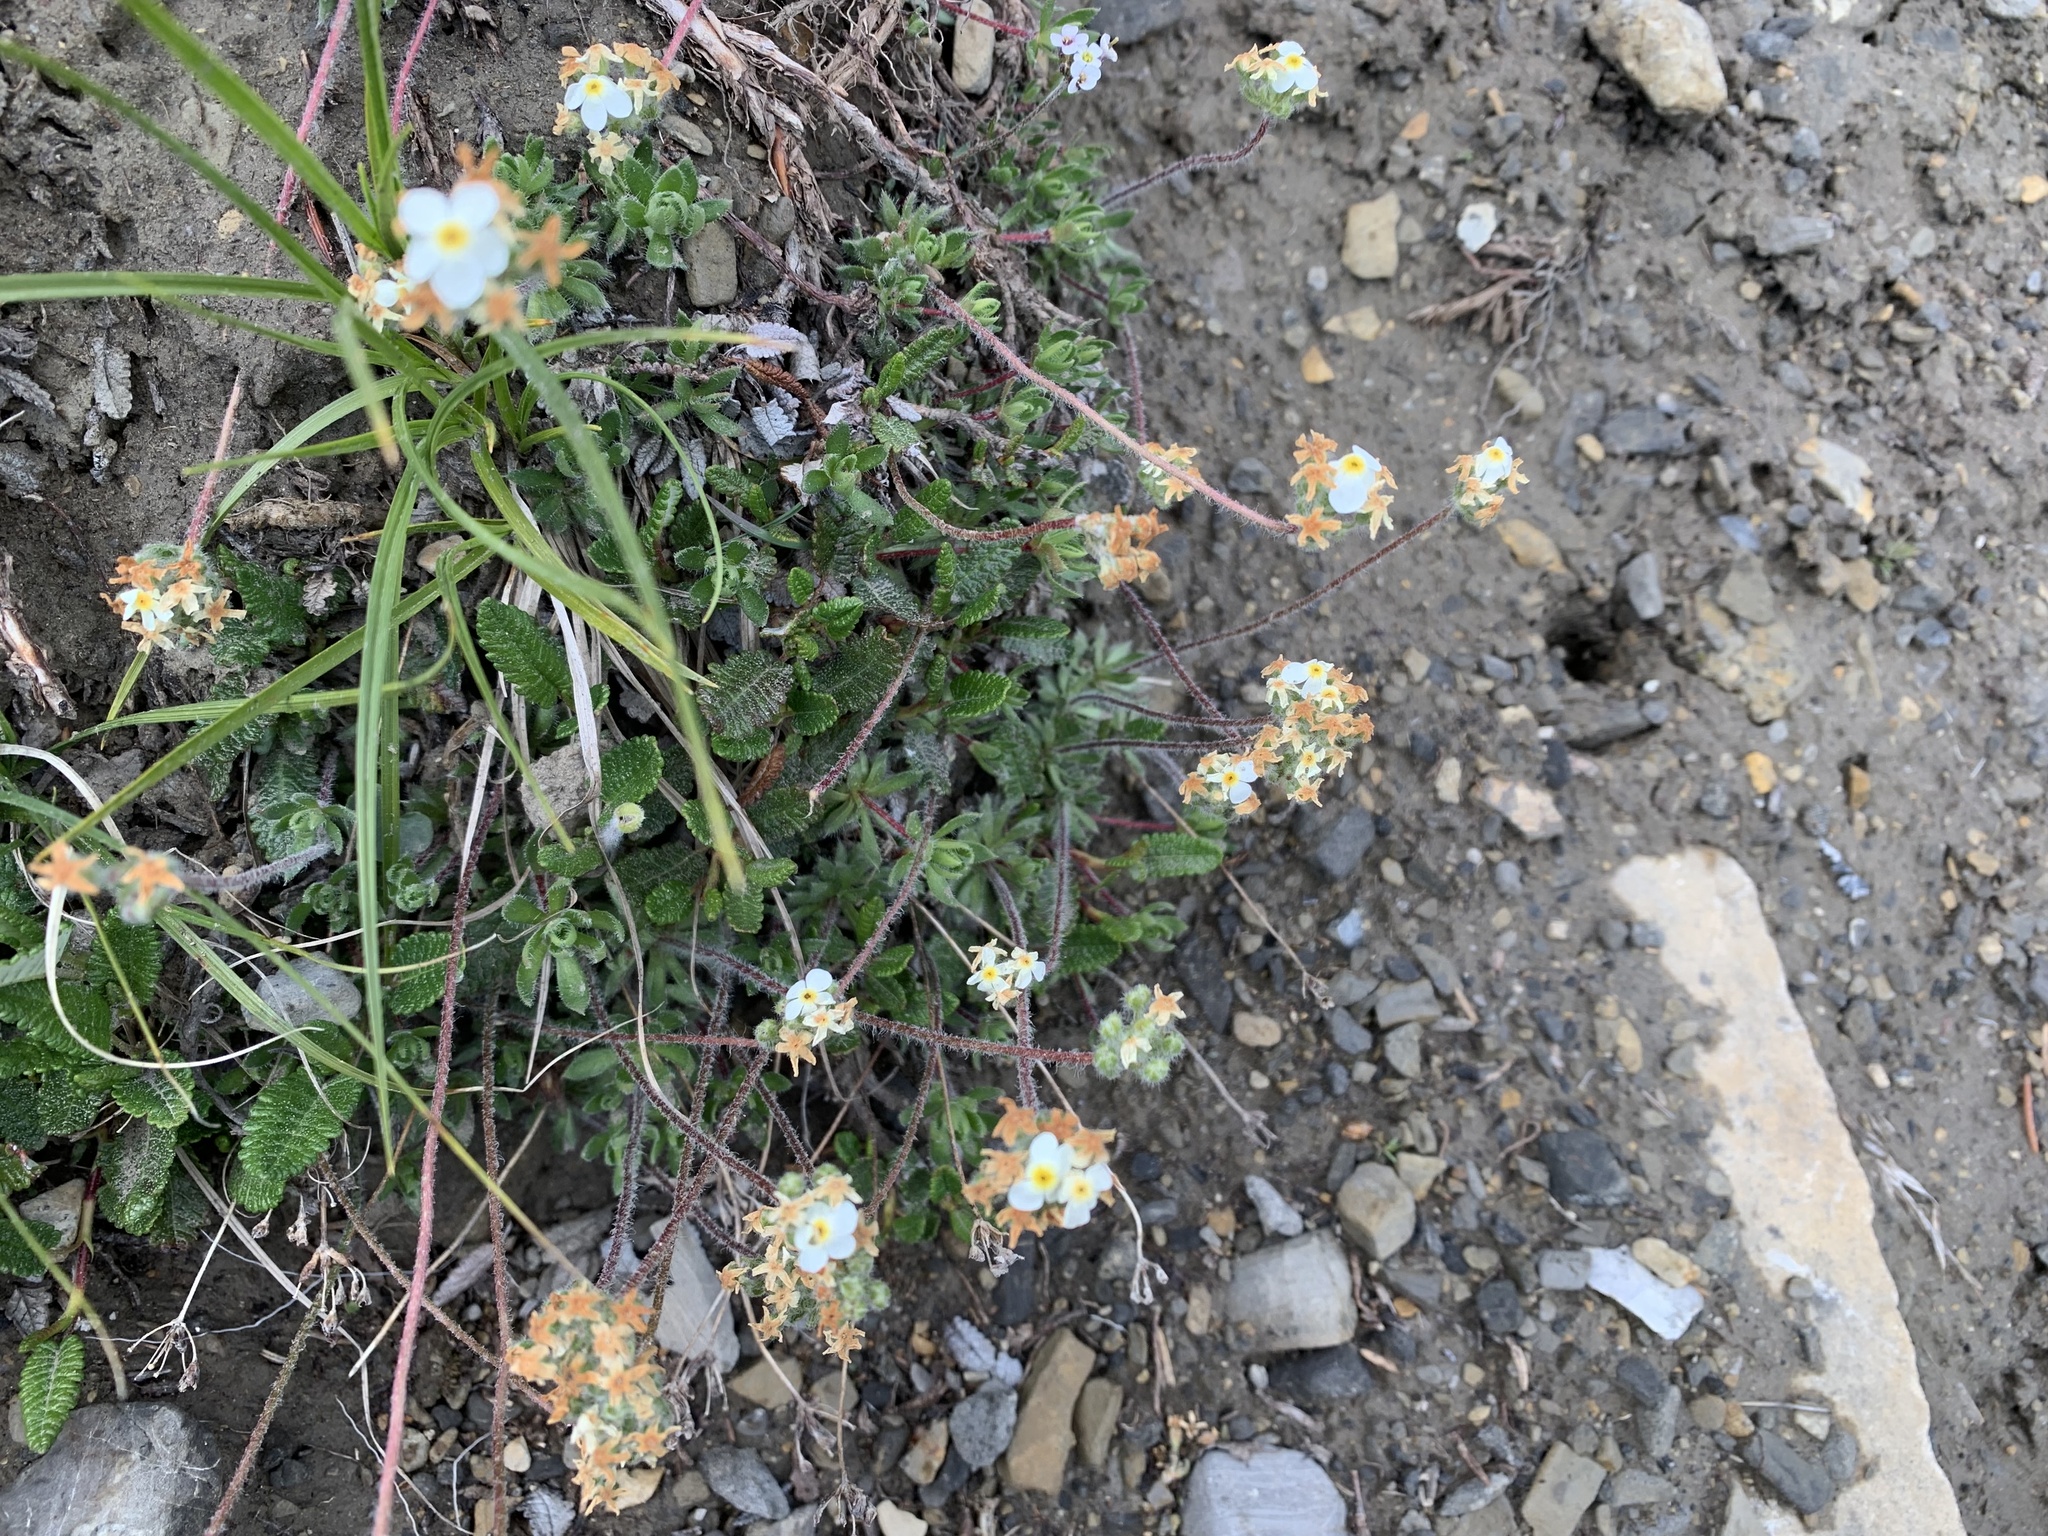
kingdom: Plantae
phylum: Tracheophyta
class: Magnoliopsida
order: Ericales
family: Primulaceae
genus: Androsace
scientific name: Androsace chamaejasme
